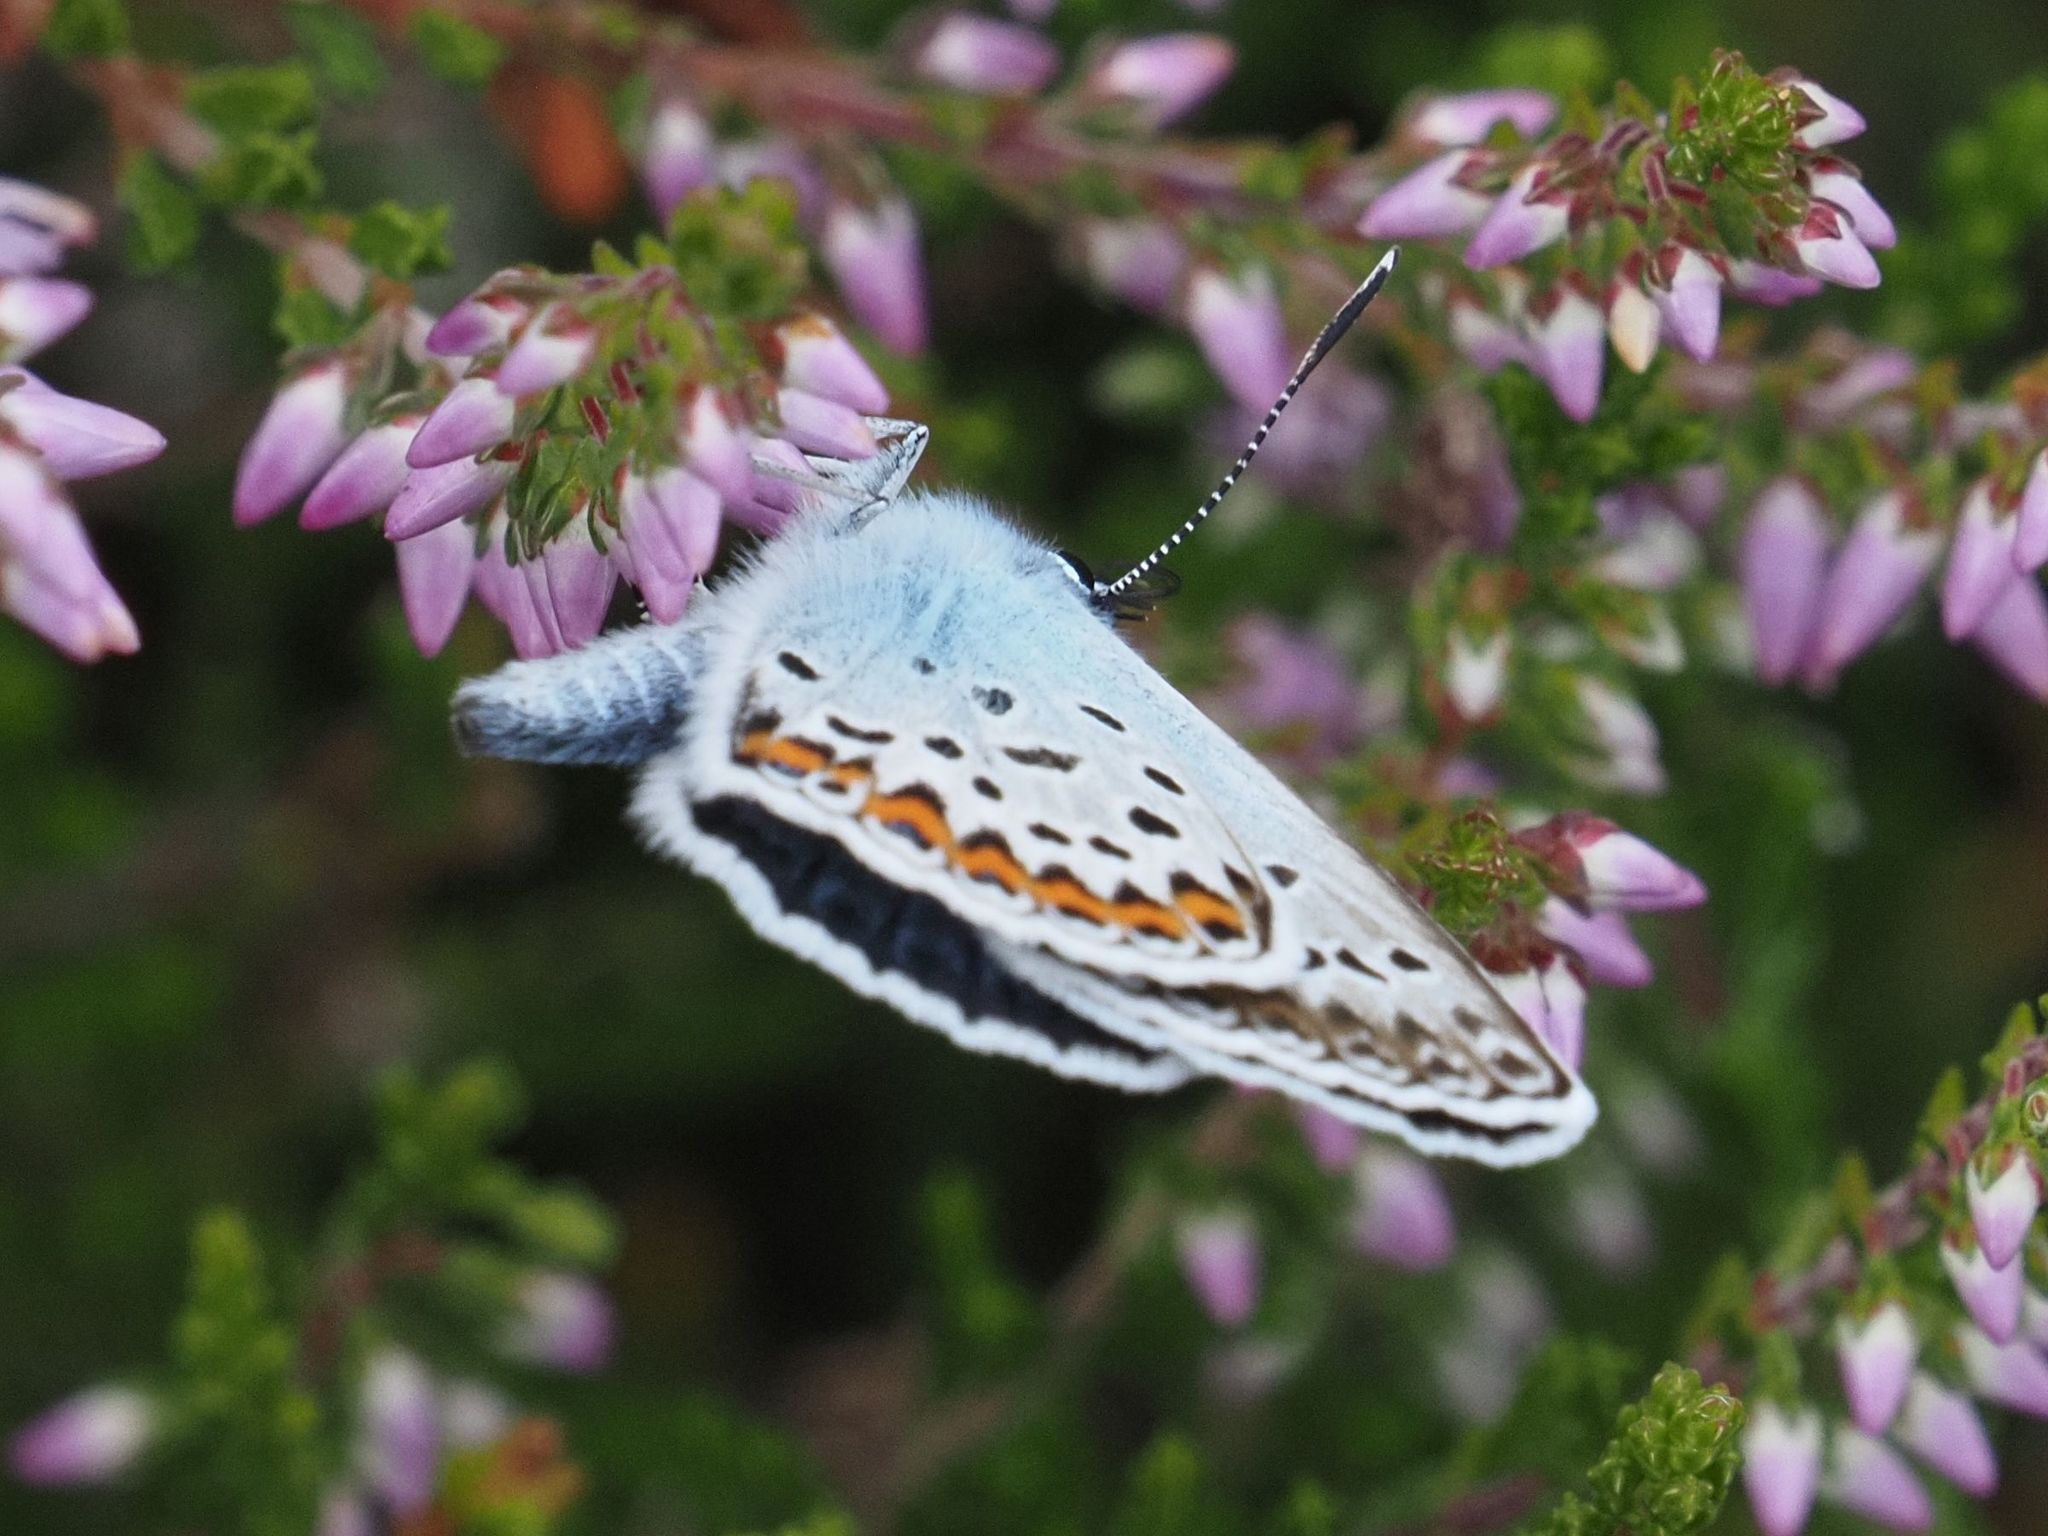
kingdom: Animalia
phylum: Arthropoda
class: Insecta
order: Lepidoptera
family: Lycaenidae
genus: Plebejus
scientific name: Plebejus argus
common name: Silver-studded blue
